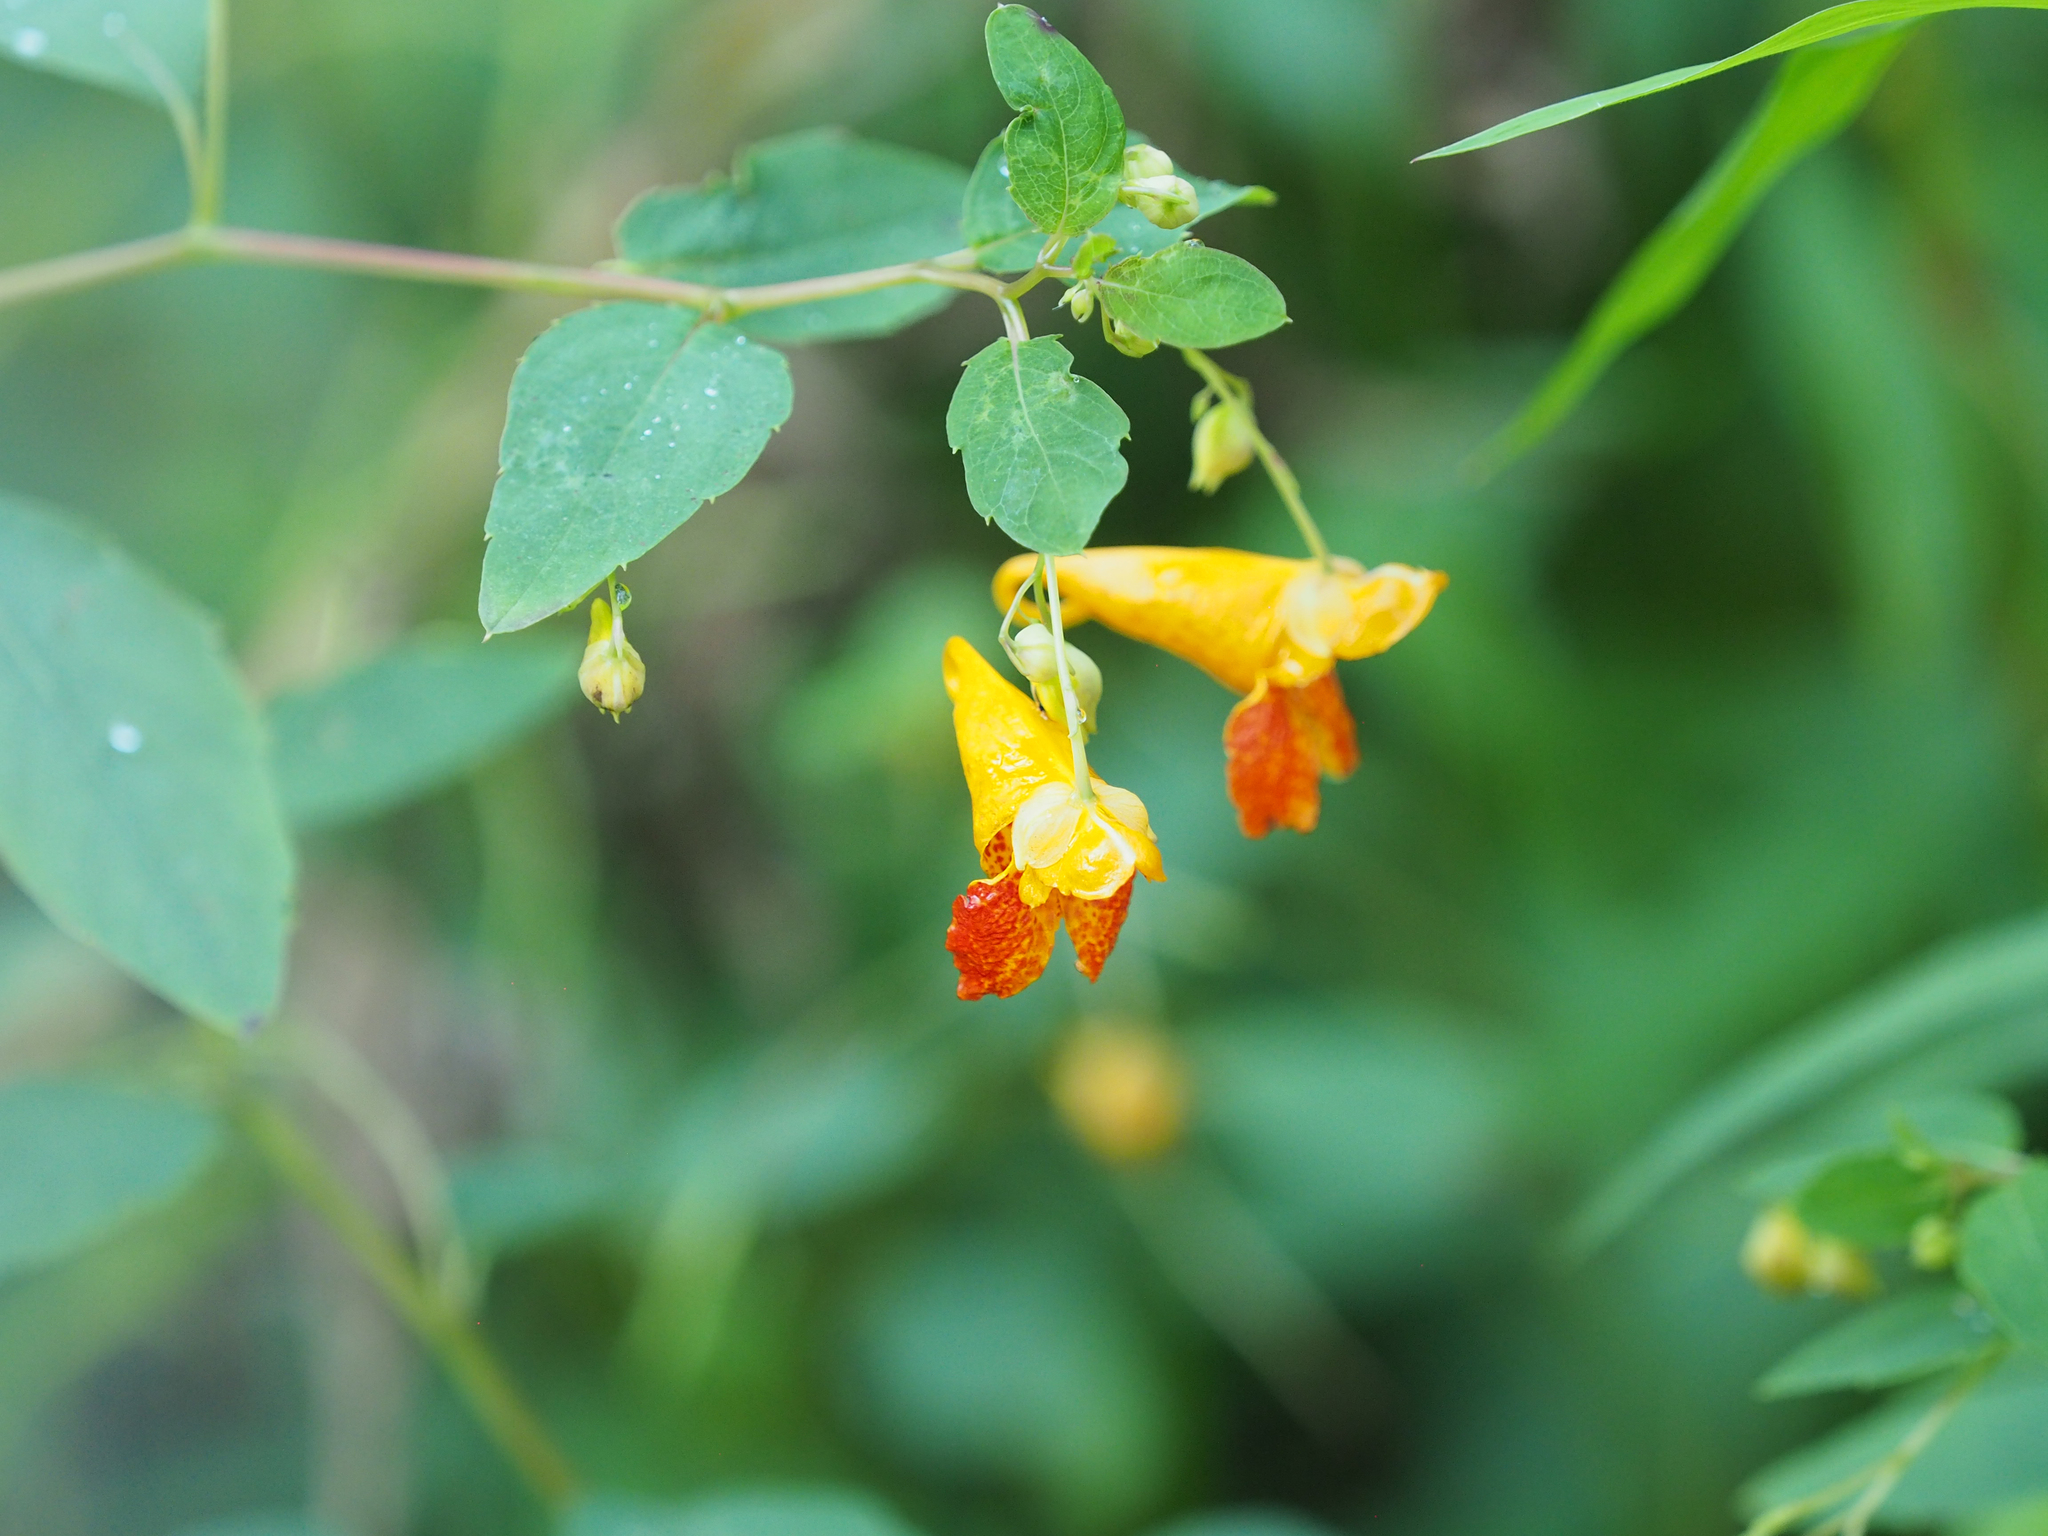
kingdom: Plantae
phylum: Tracheophyta
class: Magnoliopsida
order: Ericales
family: Balsaminaceae
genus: Impatiens
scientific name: Impatiens capensis
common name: Orange balsam
